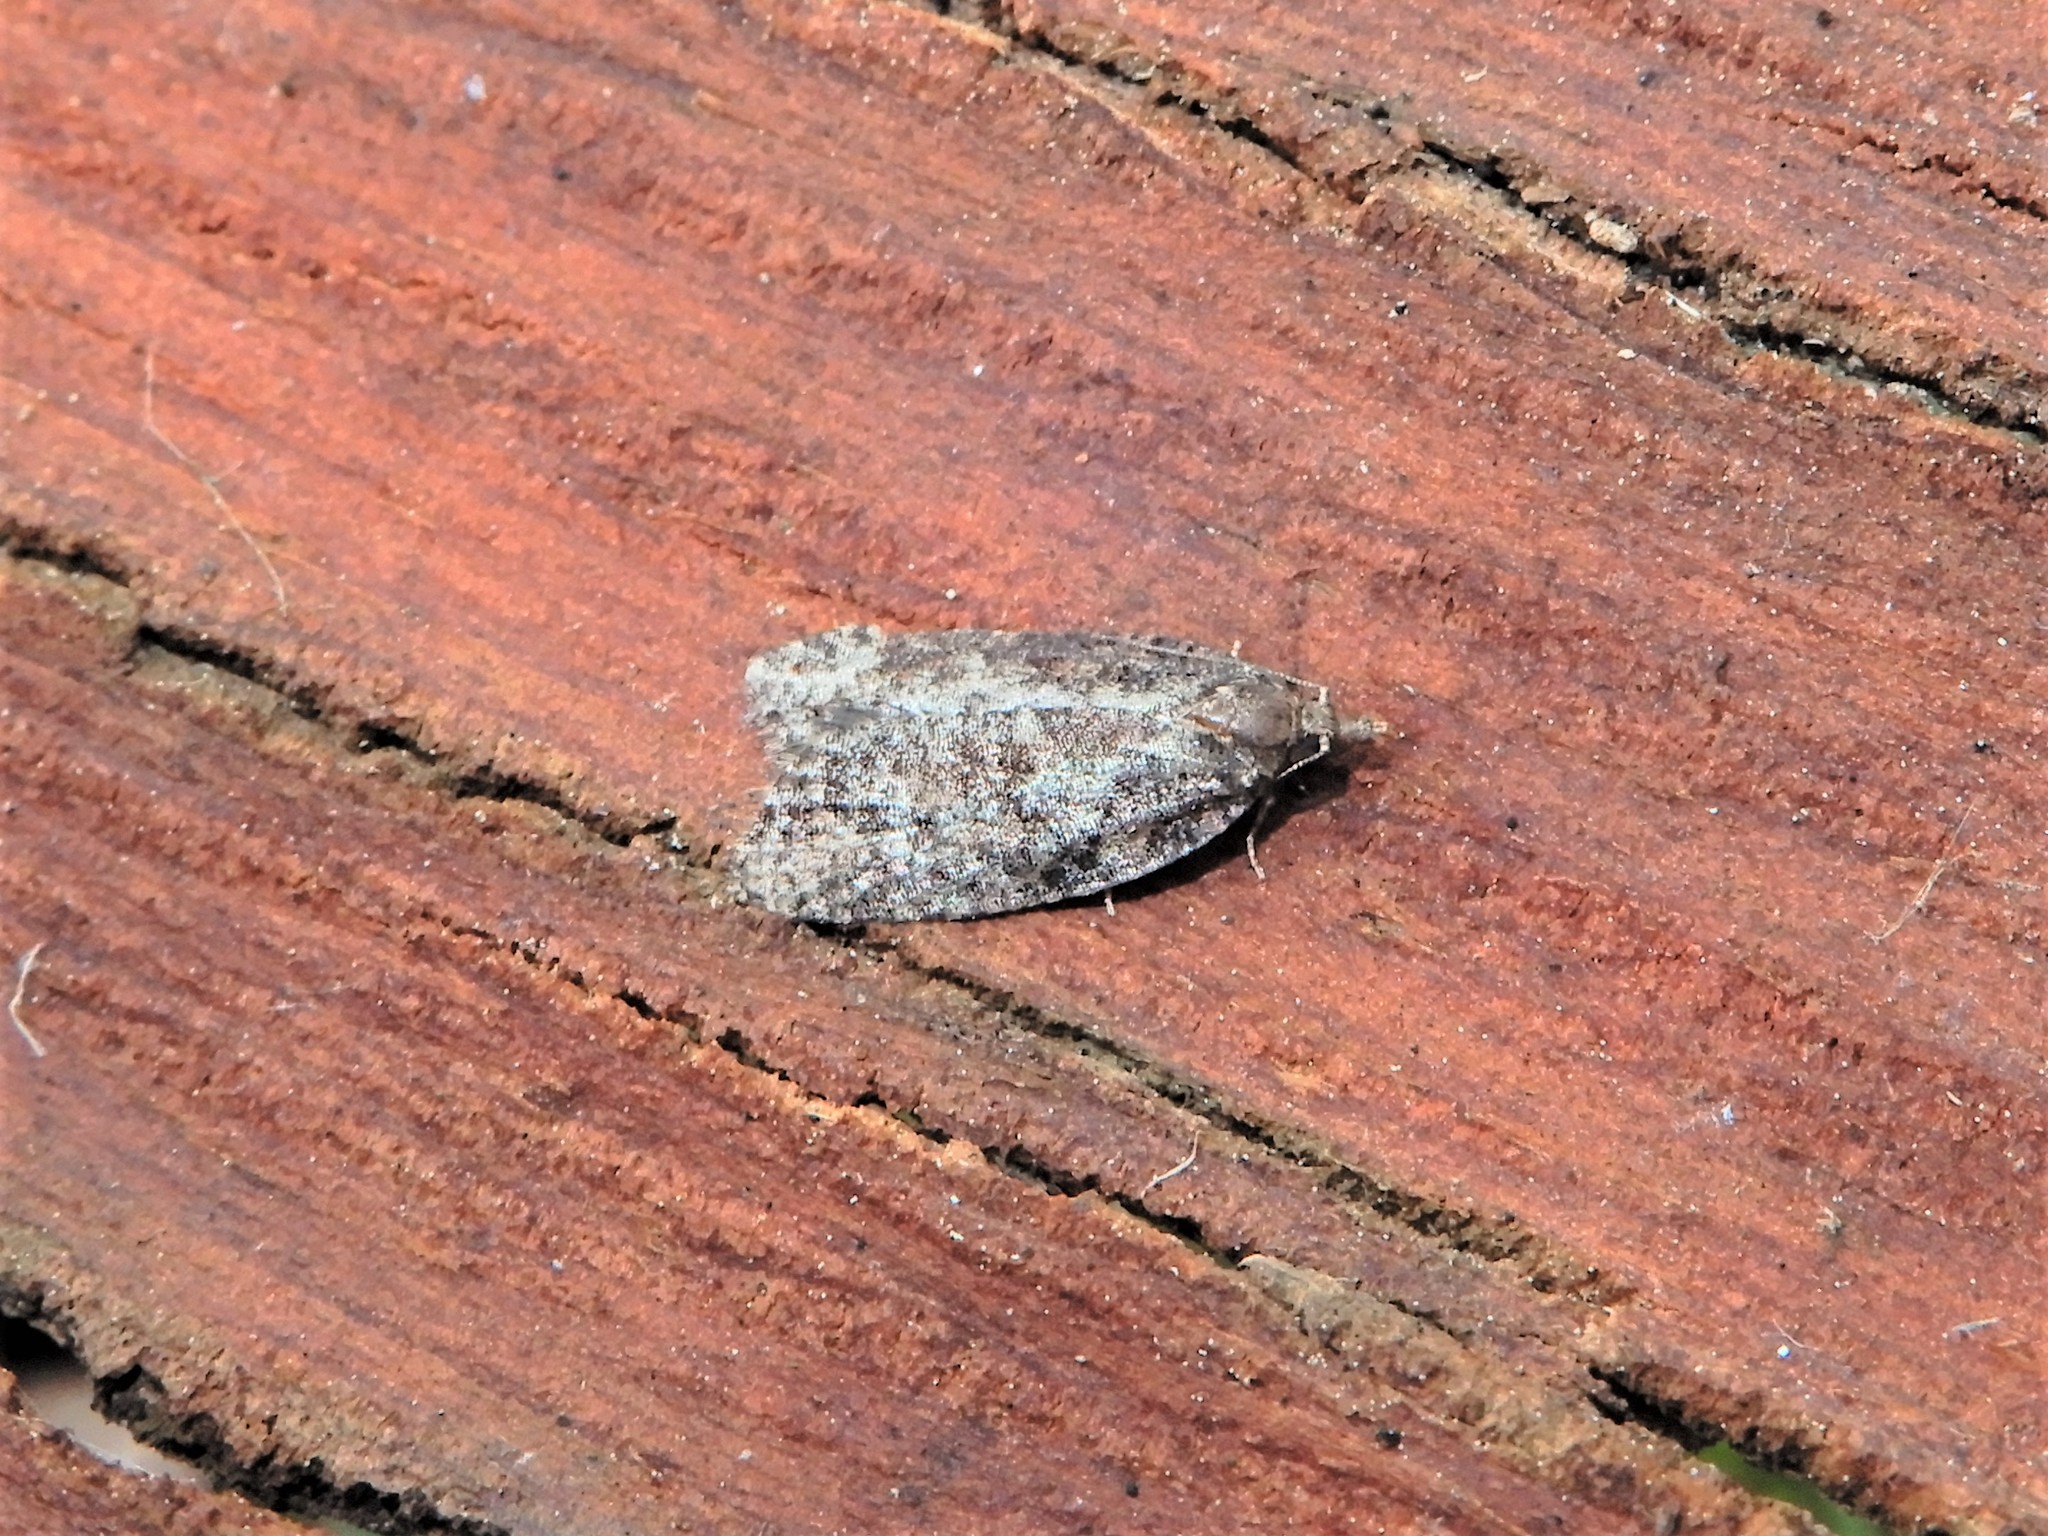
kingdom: Animalia
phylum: Arthropoda
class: Insecta
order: Lepidoptera
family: Tortricidae
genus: Capua
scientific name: Capua intractana
